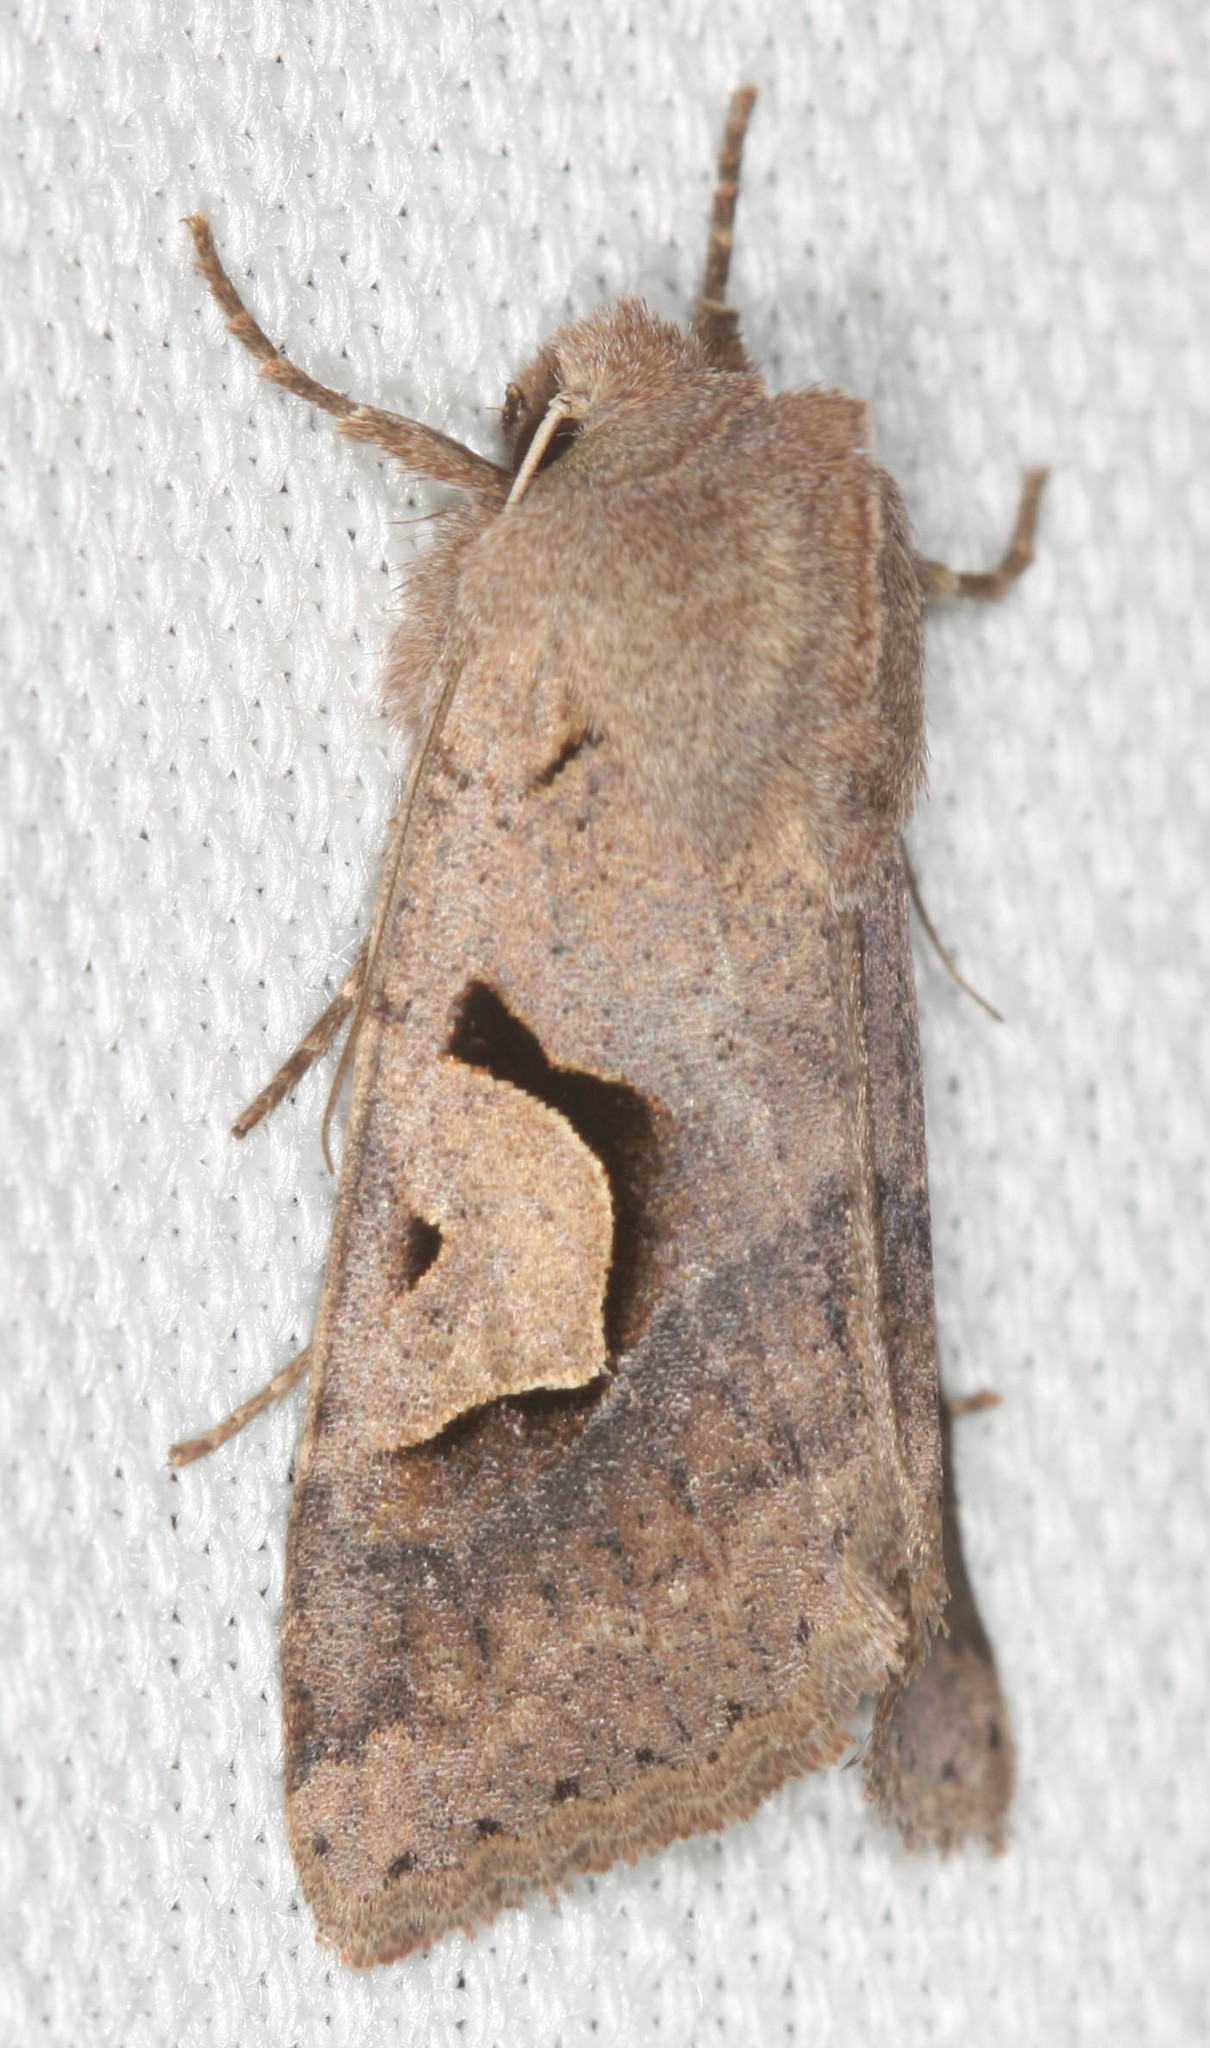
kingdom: Animalia
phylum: Arthropoda
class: Insecta
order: Lepidoptera
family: Noctuidae
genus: Acerra
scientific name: Acerra normalis
